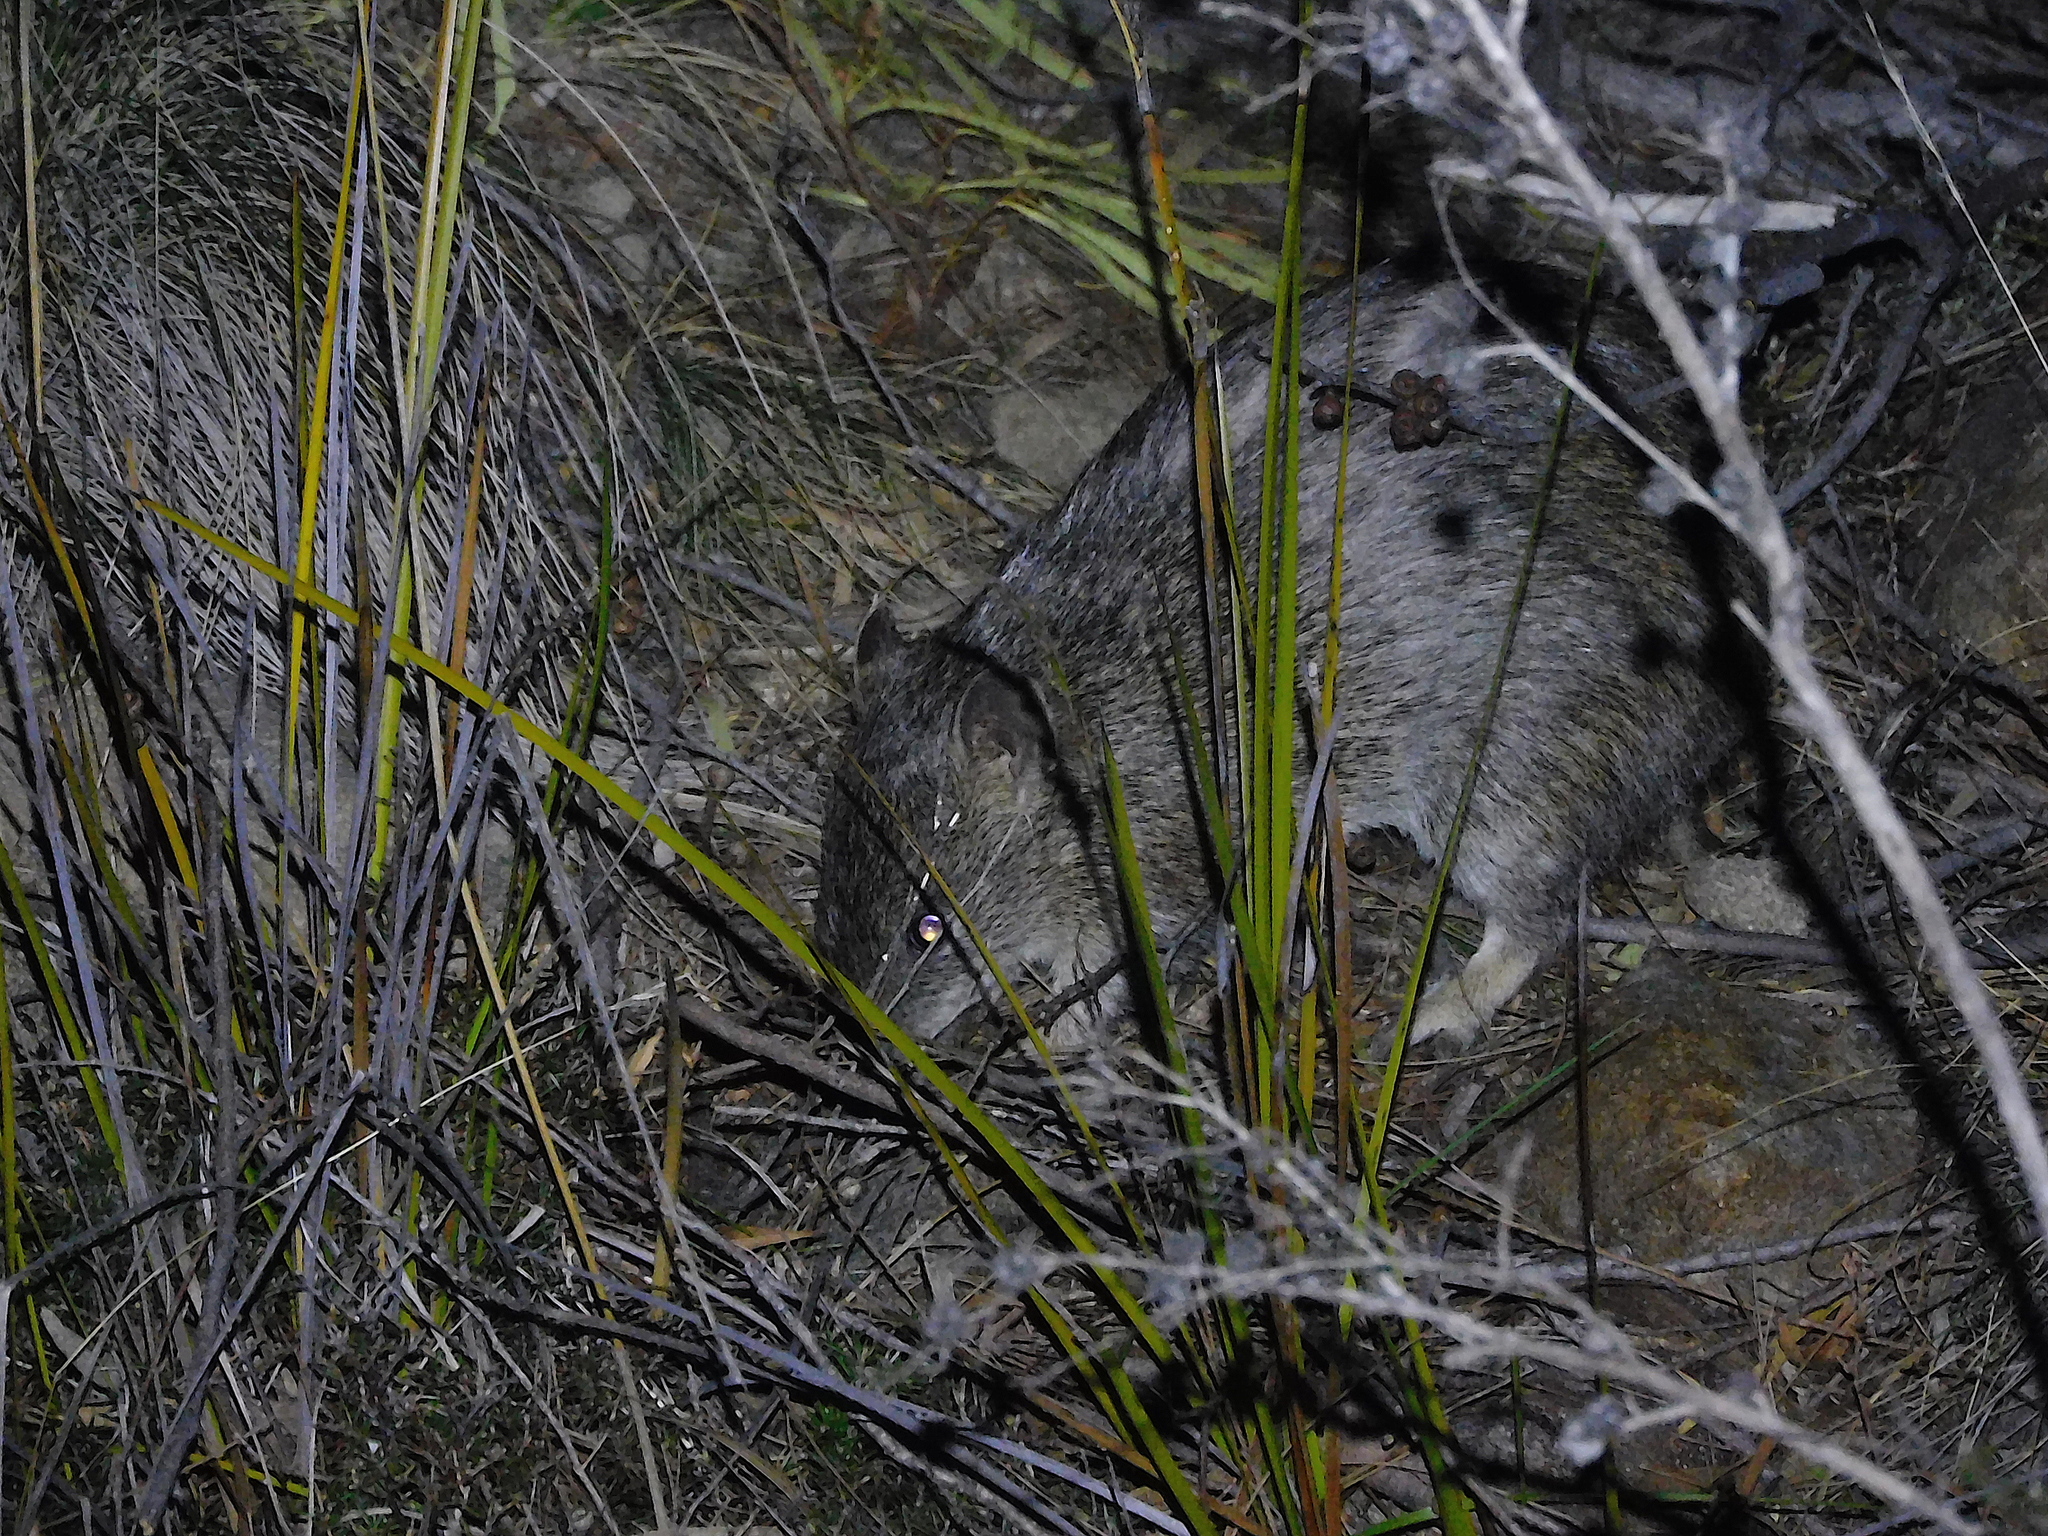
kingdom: Animalia
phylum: Chordata
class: Mammalia
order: Peramelemorphia
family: Peramelidae
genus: Isoodon
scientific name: Isoodon obesulus
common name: Southern brown bandicoot
